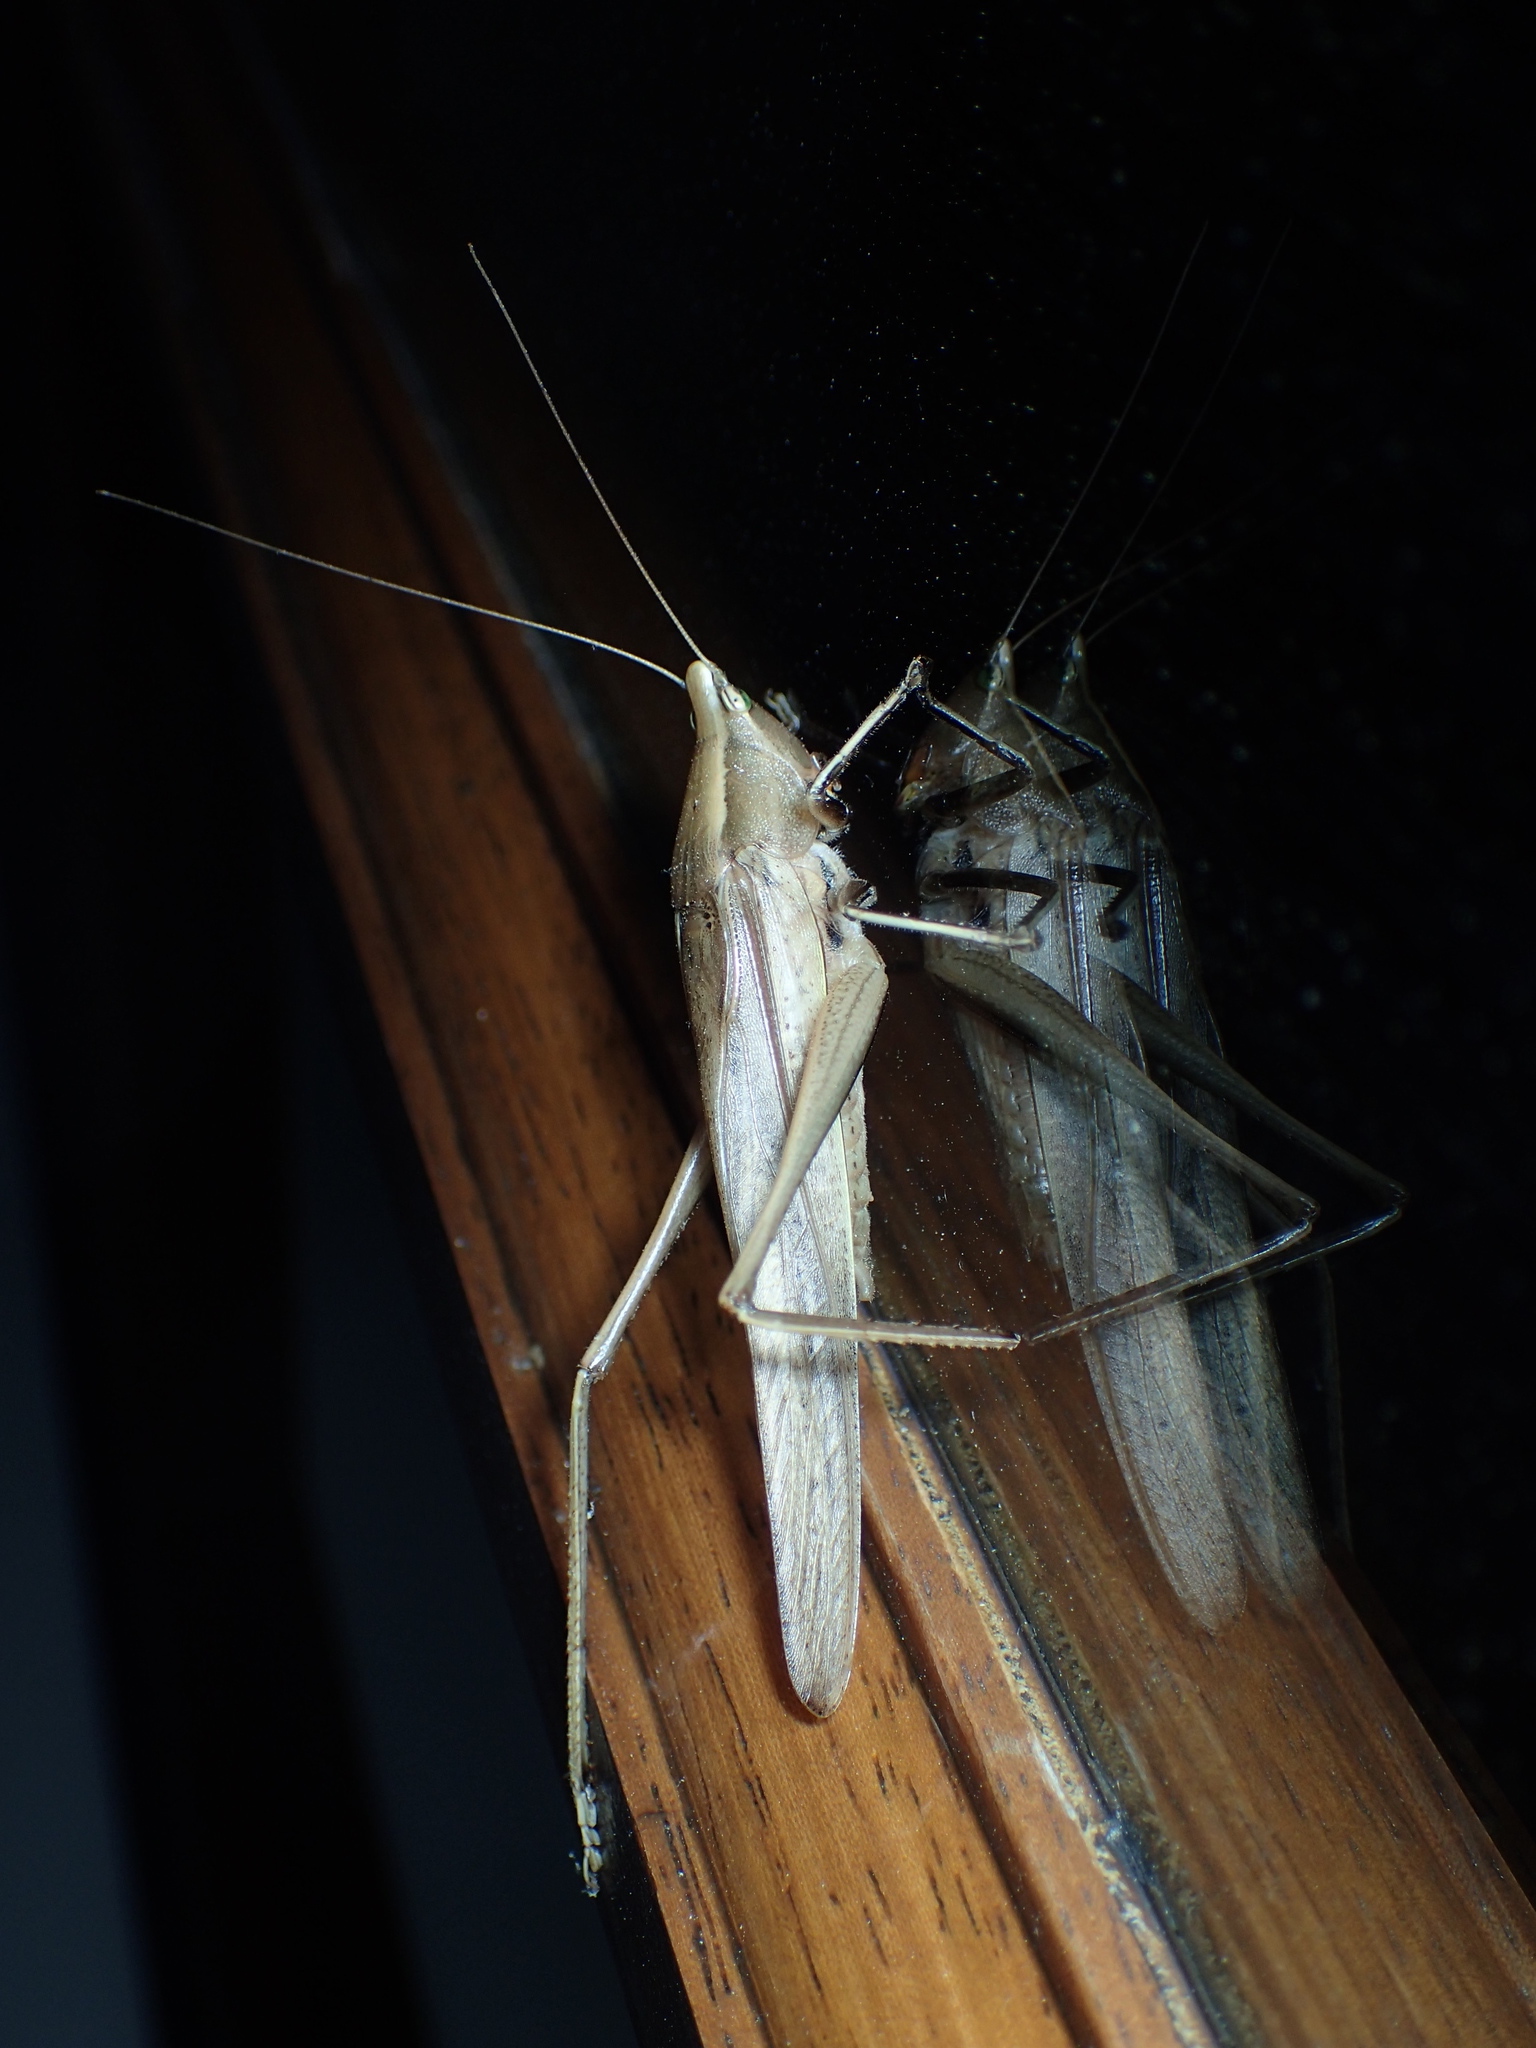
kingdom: Animalia
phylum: Arthropoda
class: Insecta
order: Orthoptera
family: Tettigoniidae
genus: Neoconocephalus
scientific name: Neoconocephalus triops
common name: Broad-tipped conehead
